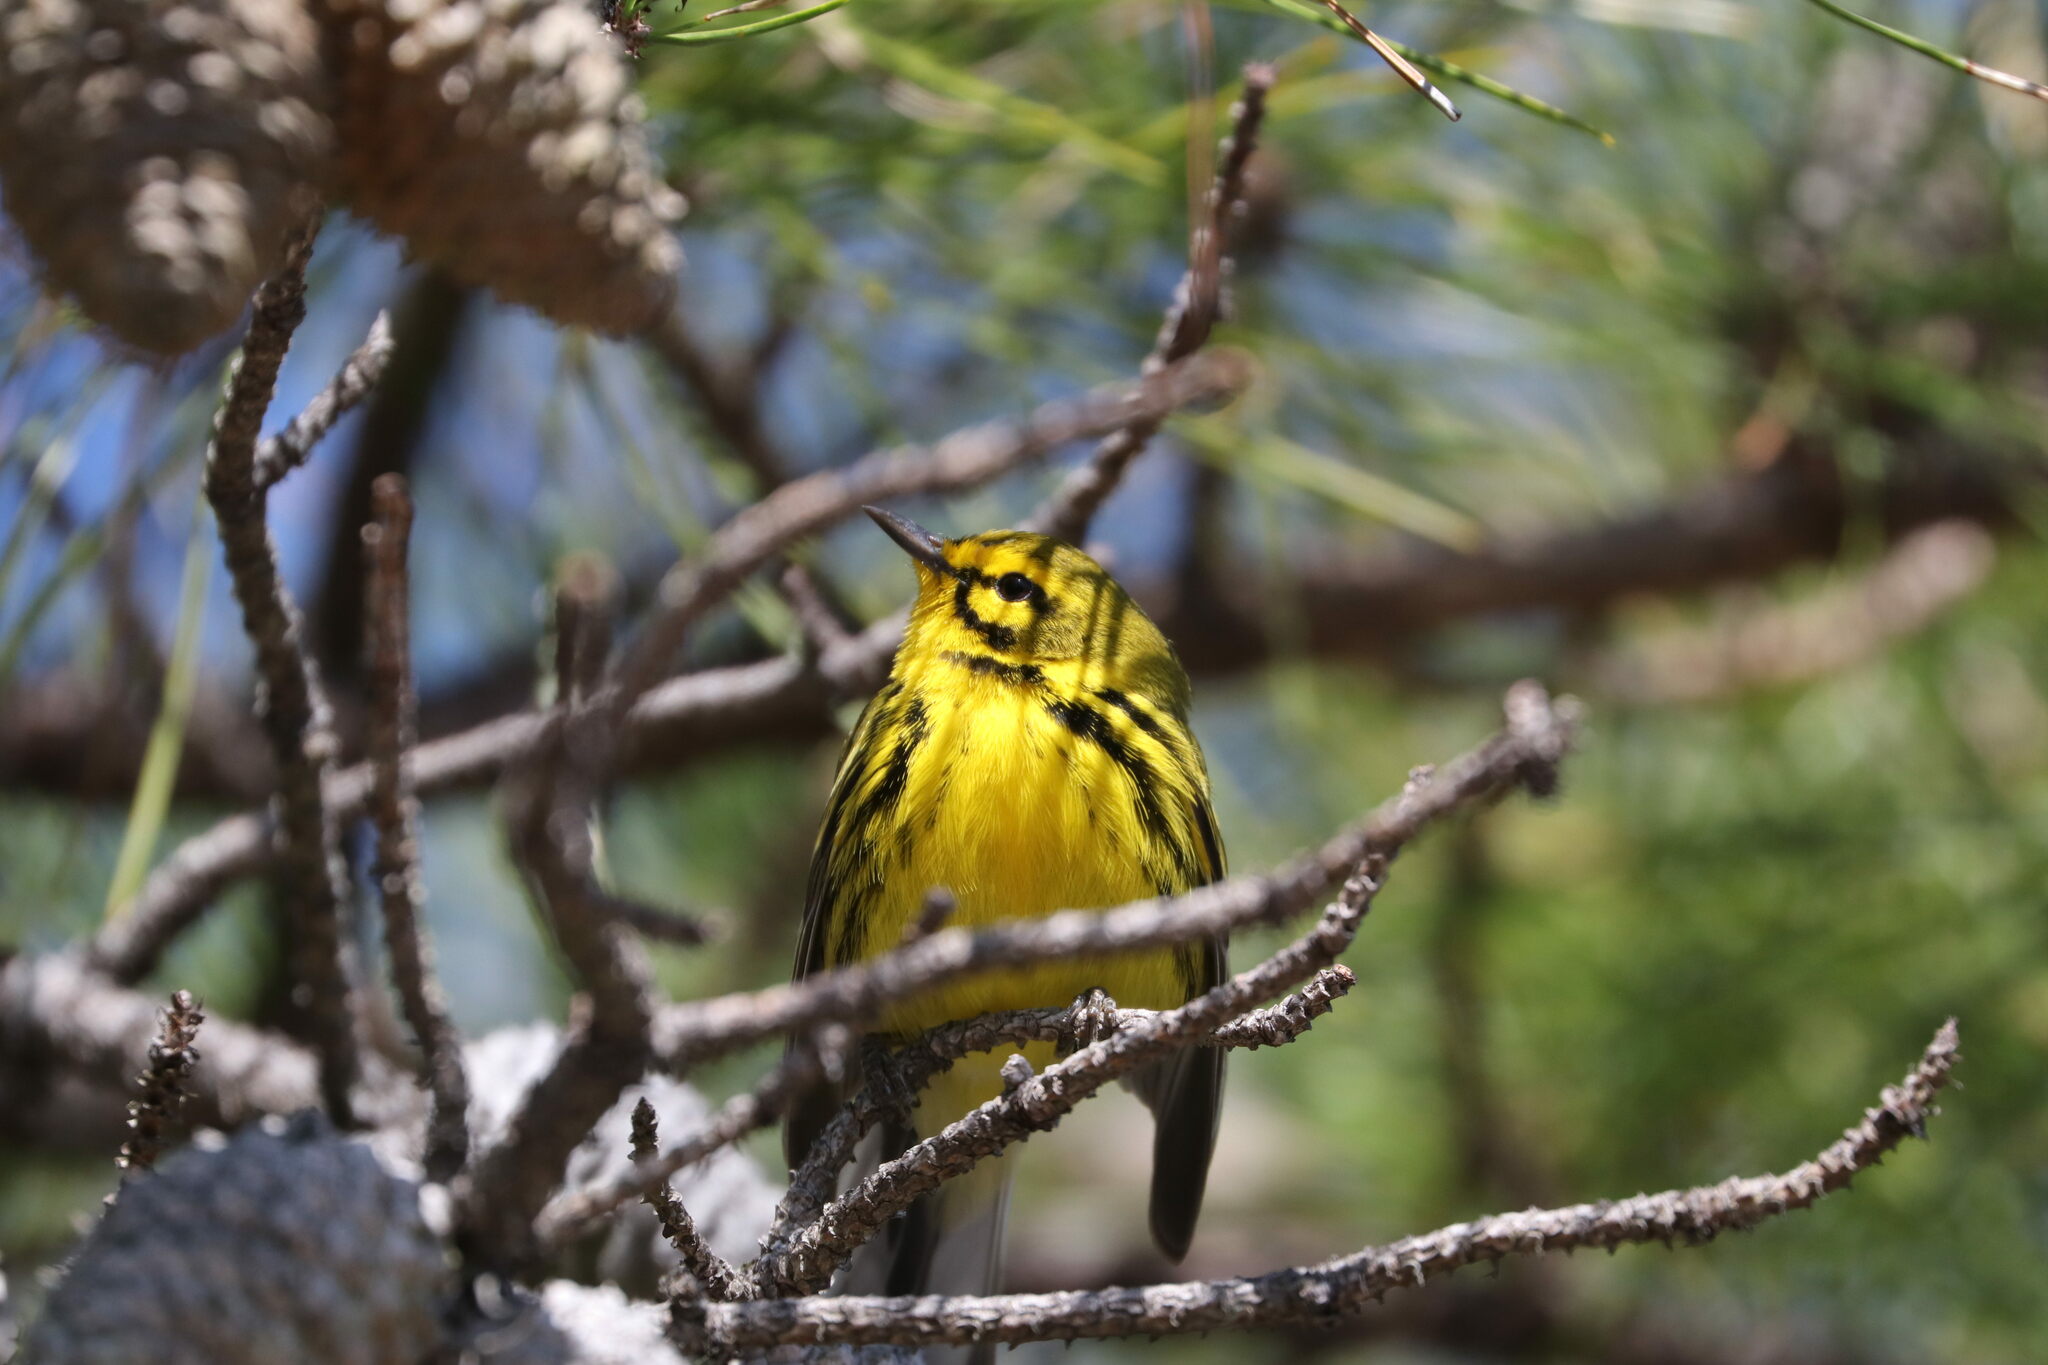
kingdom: Animalia
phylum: Chordata
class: Aves
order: Passeriformes
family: Parulidae
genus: Setophaga
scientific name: Setophaga discolor
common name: Prairie warbler
